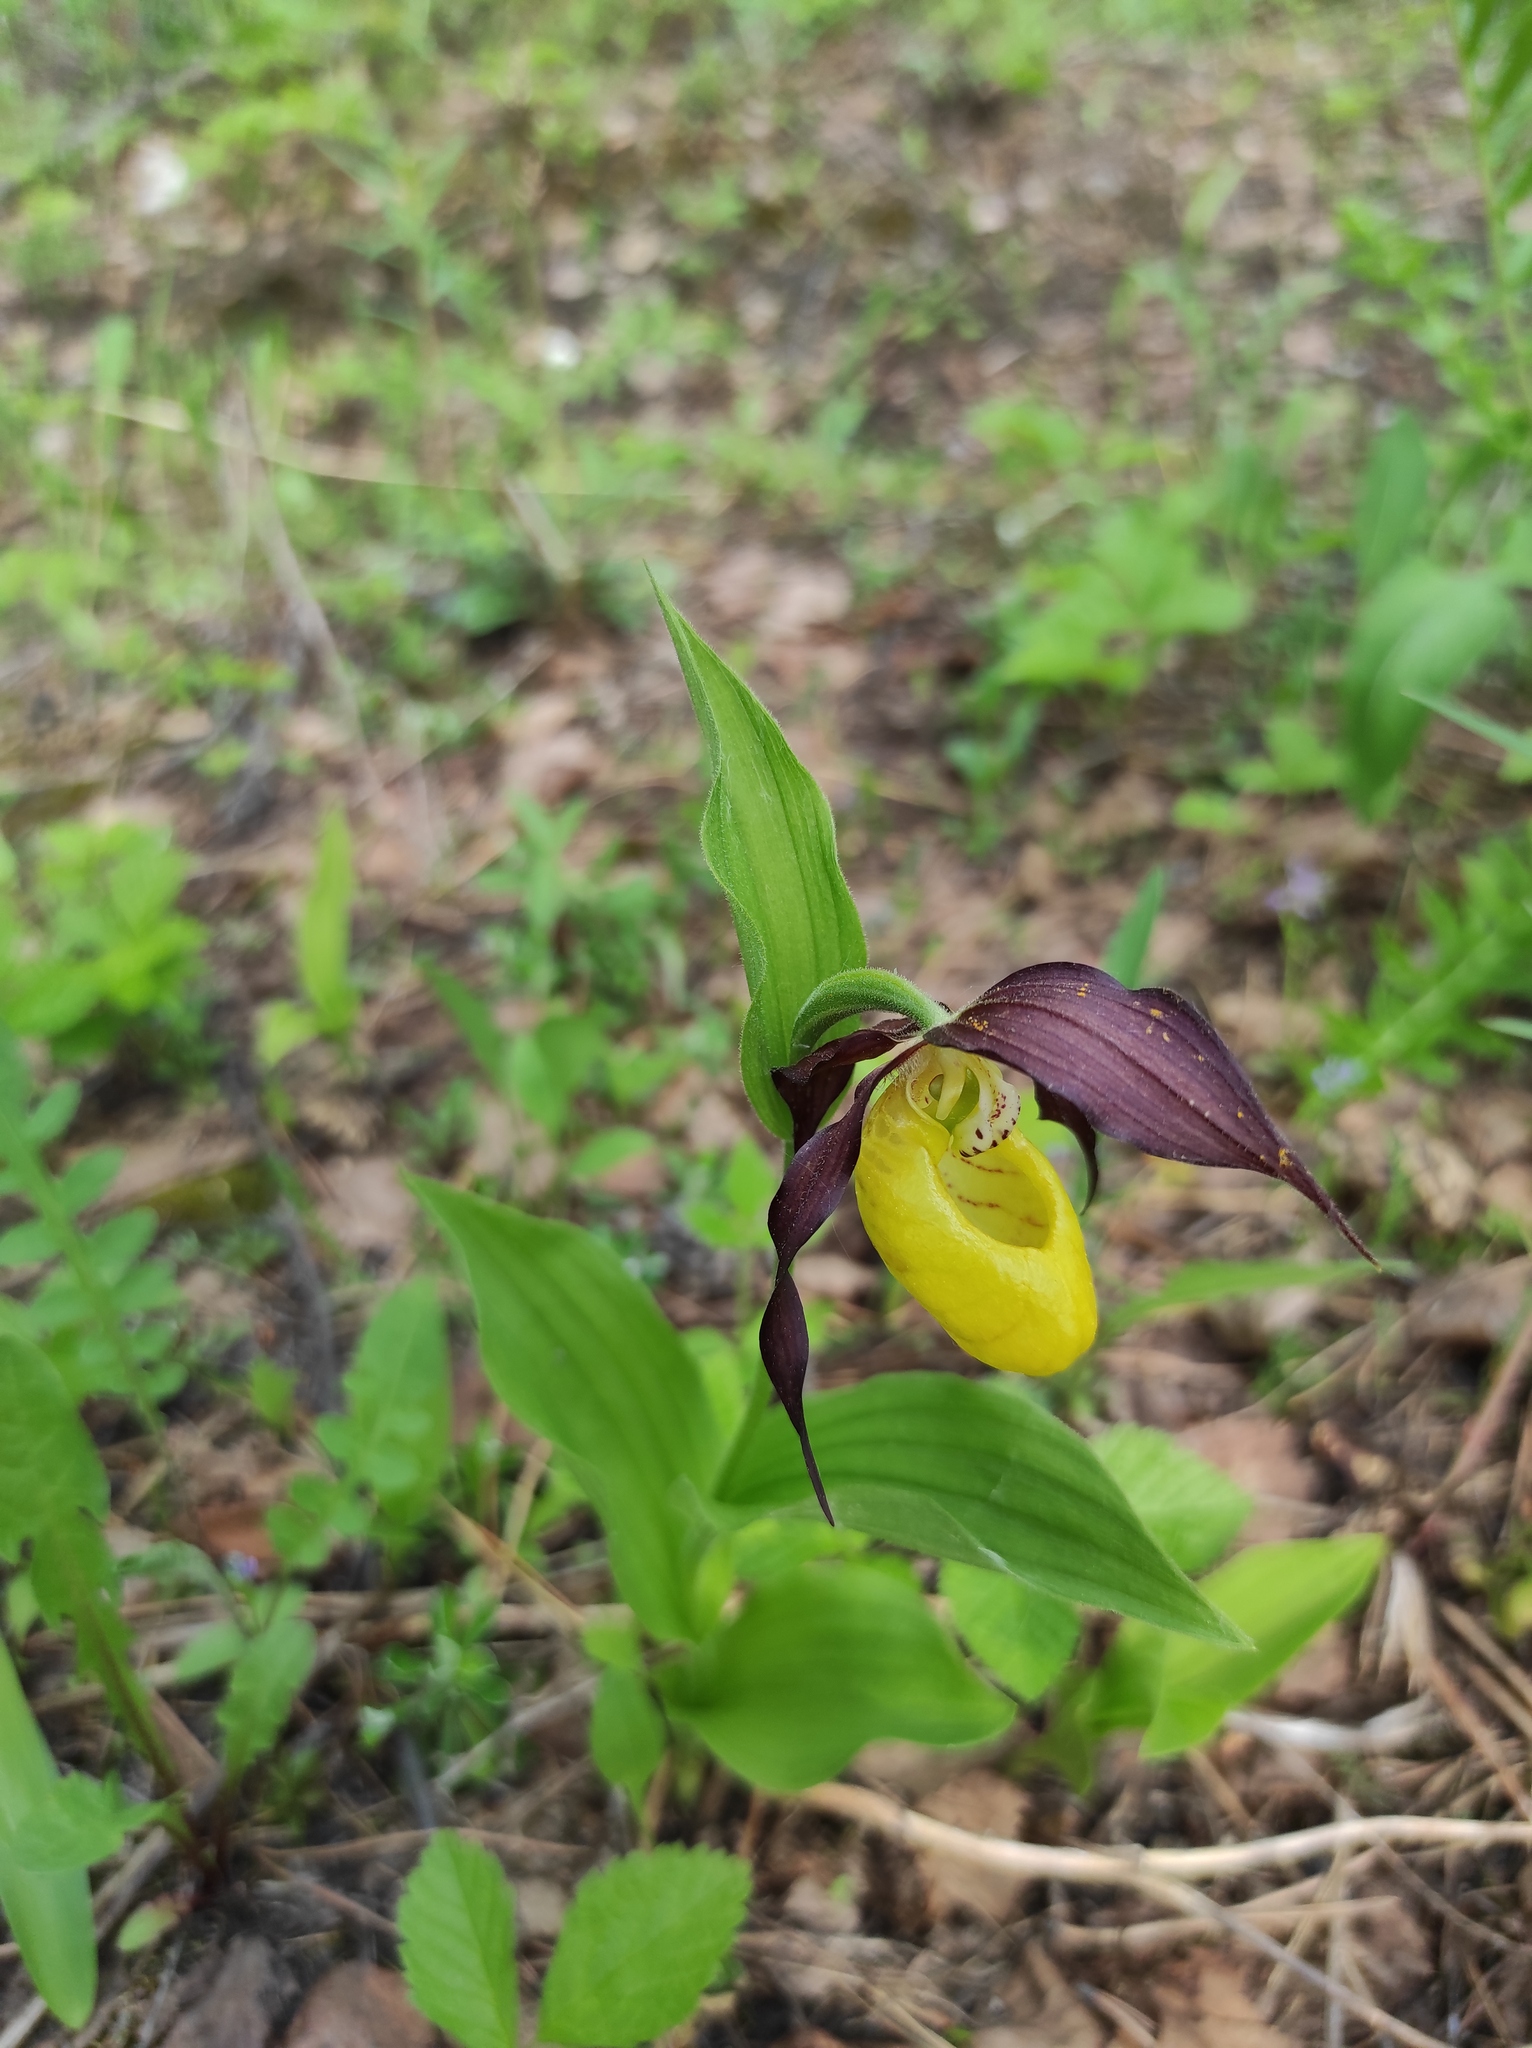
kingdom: Plantae
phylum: Tracheophyta
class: Liliopsida
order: Asparagales
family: Orchidaceae
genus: Cypripedium
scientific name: Cypripedium calceolus
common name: Lady's-slipper
